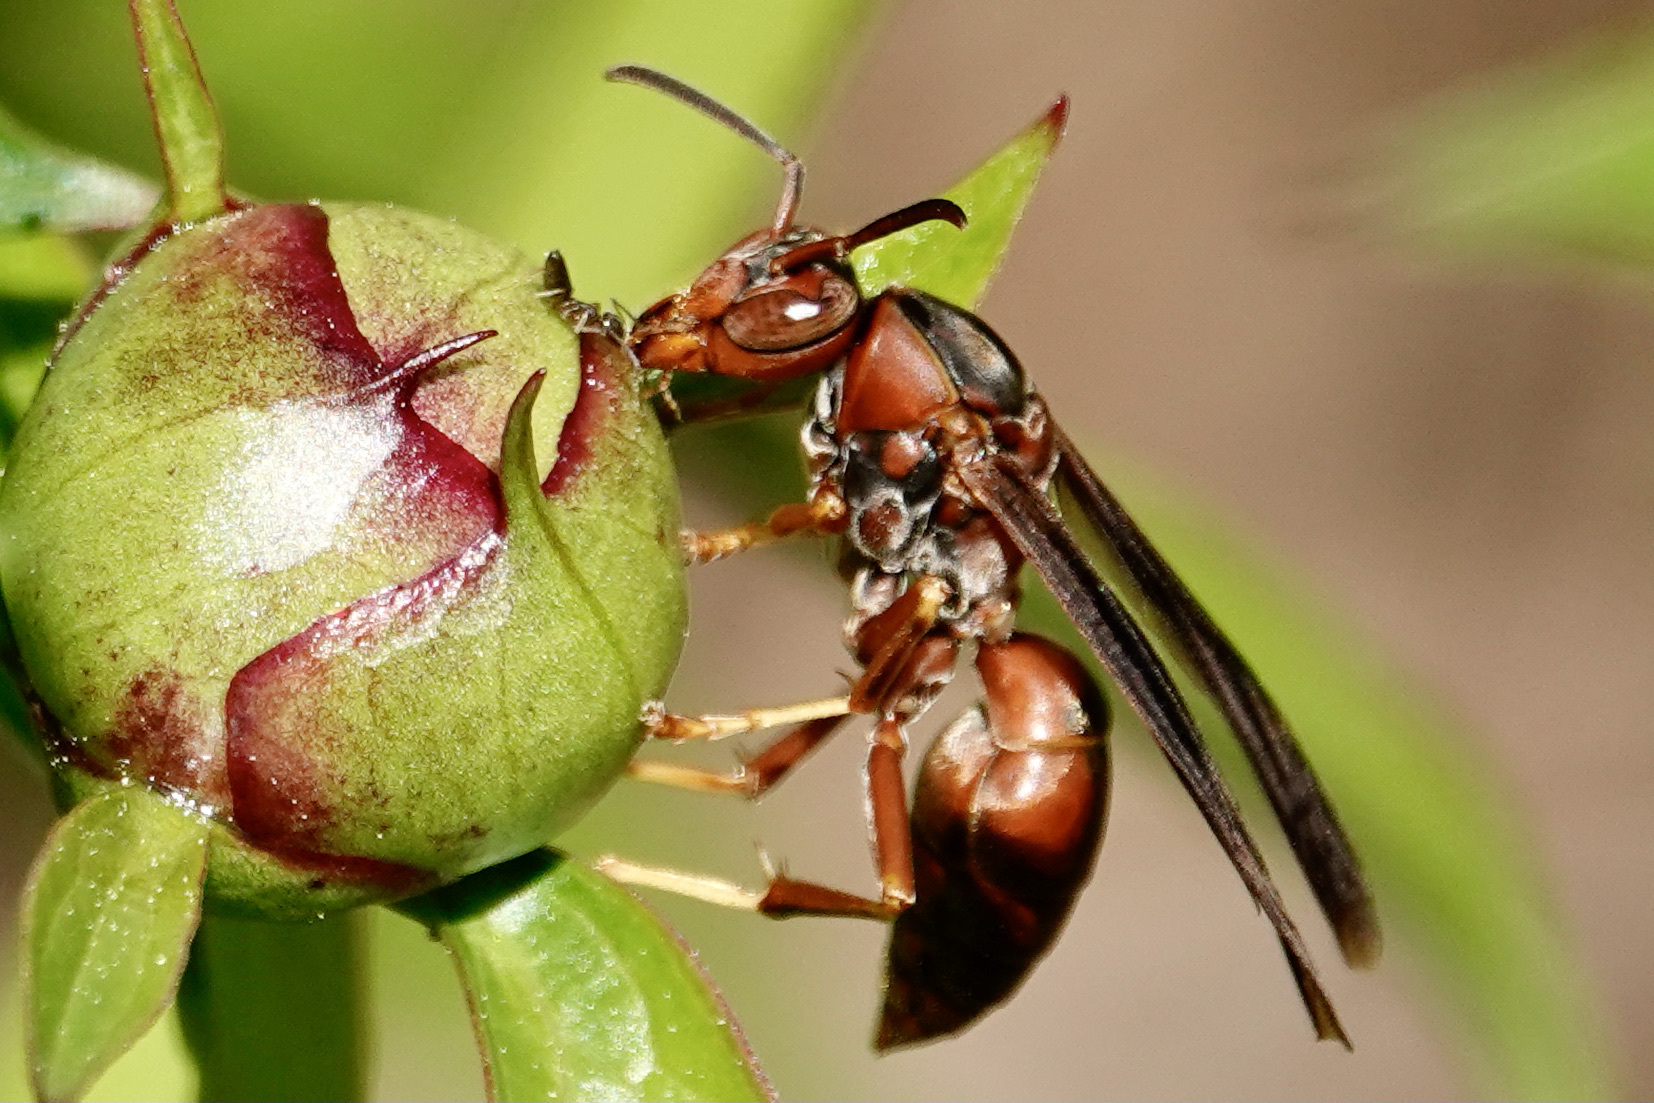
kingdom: Animalia
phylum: Arthropoda
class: Insecta
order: Hymenoptera
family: Eumenidae
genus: Polistes
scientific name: Polistes fuscatus
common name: Dark paper wasp
